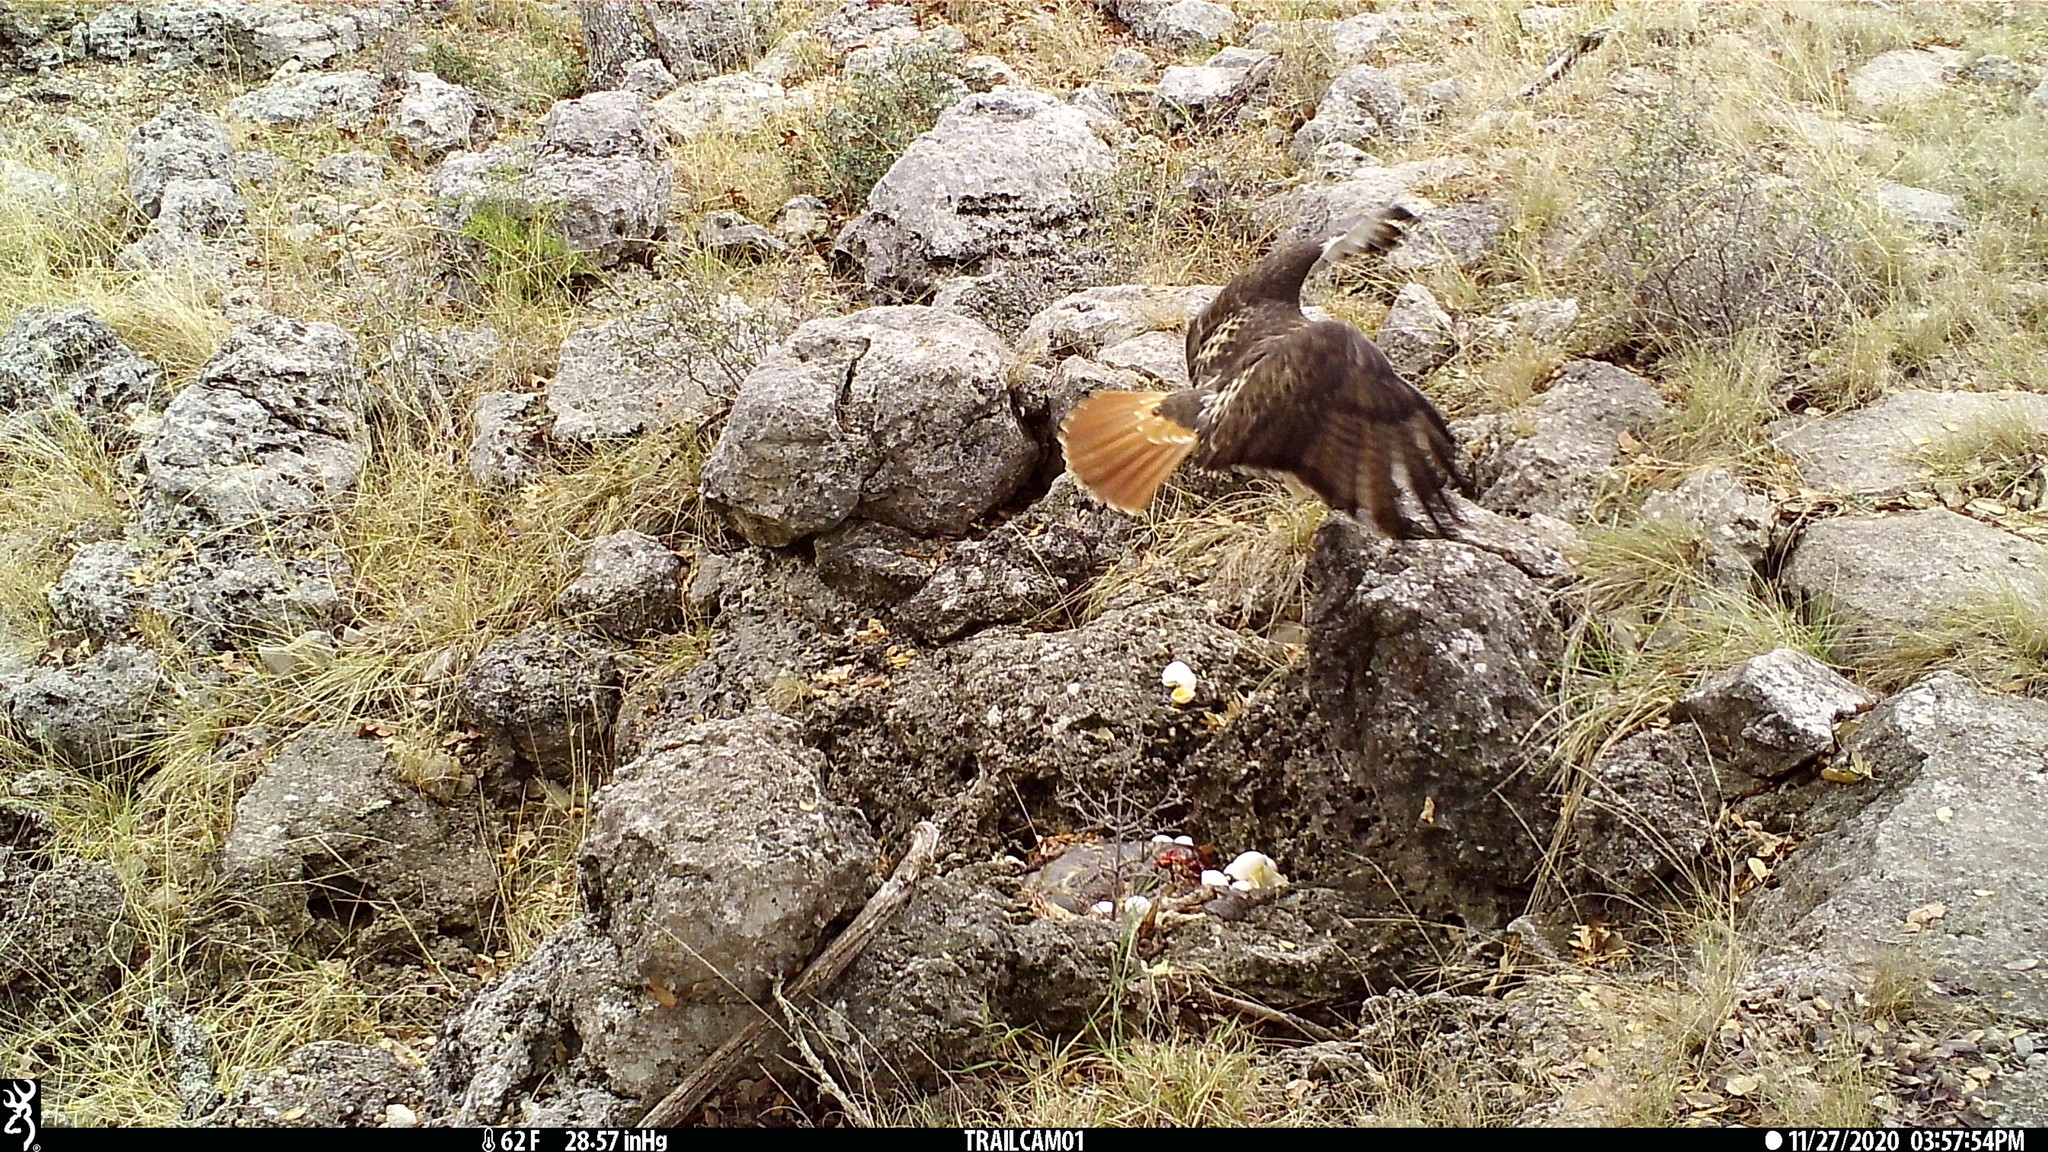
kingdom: Animalia
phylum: Chordata
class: Aves
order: Accipitriformes
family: Accipitridae
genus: Buteo
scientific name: Buteo jamaicensis
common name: Red-tailed hawk
